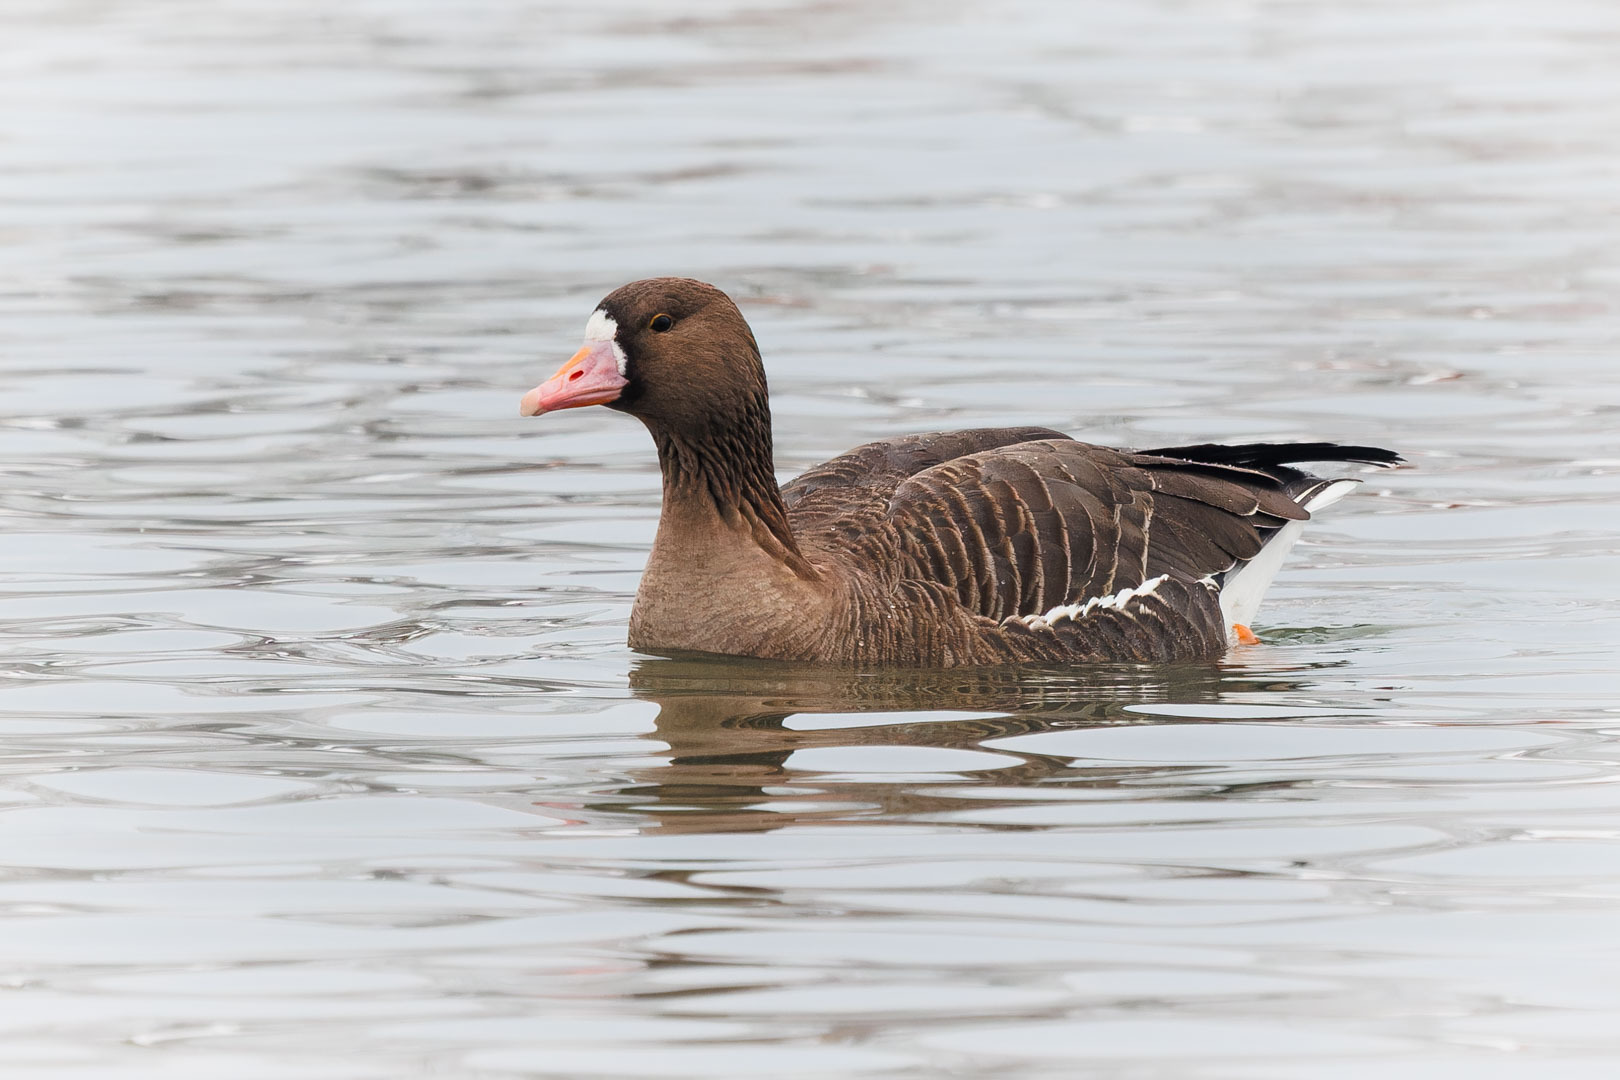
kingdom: Animalia
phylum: Chordata
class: Aves
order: Anseriformes
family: Anatidae
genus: Anser
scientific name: Anser albifrons
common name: Greater white-fronted goose
